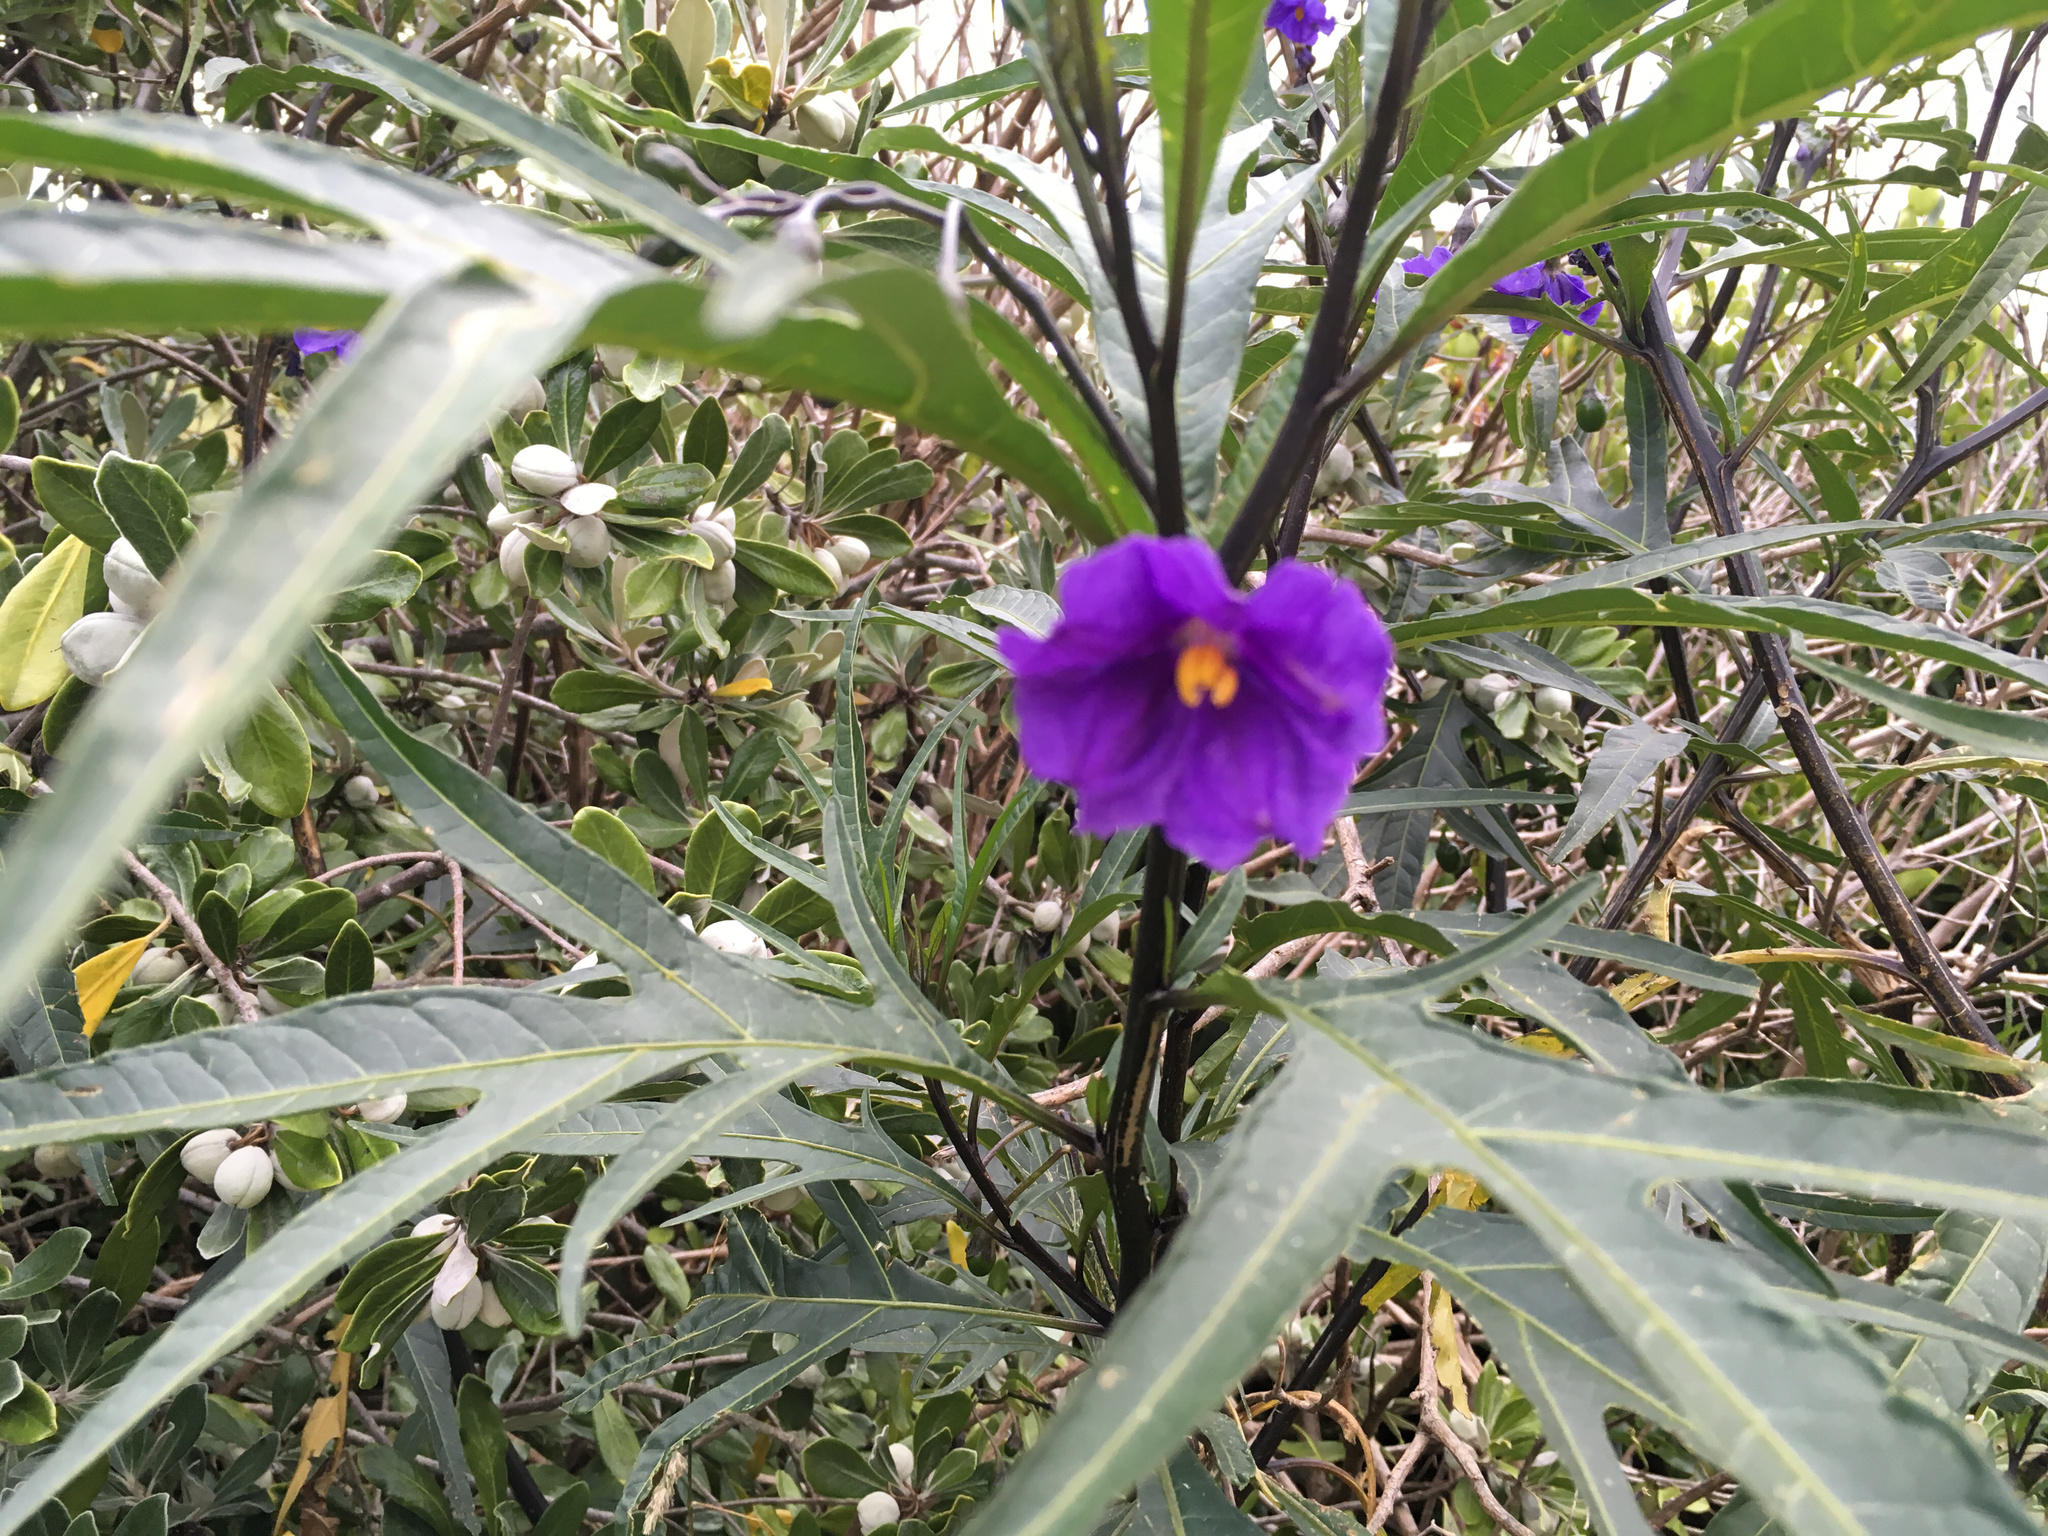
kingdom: Plantae
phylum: Tracheophyta
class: Magnoliopsida
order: Solanales
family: Solanaceae
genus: Solanum
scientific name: Solanum laciniatum
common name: Kangaroo-apple
